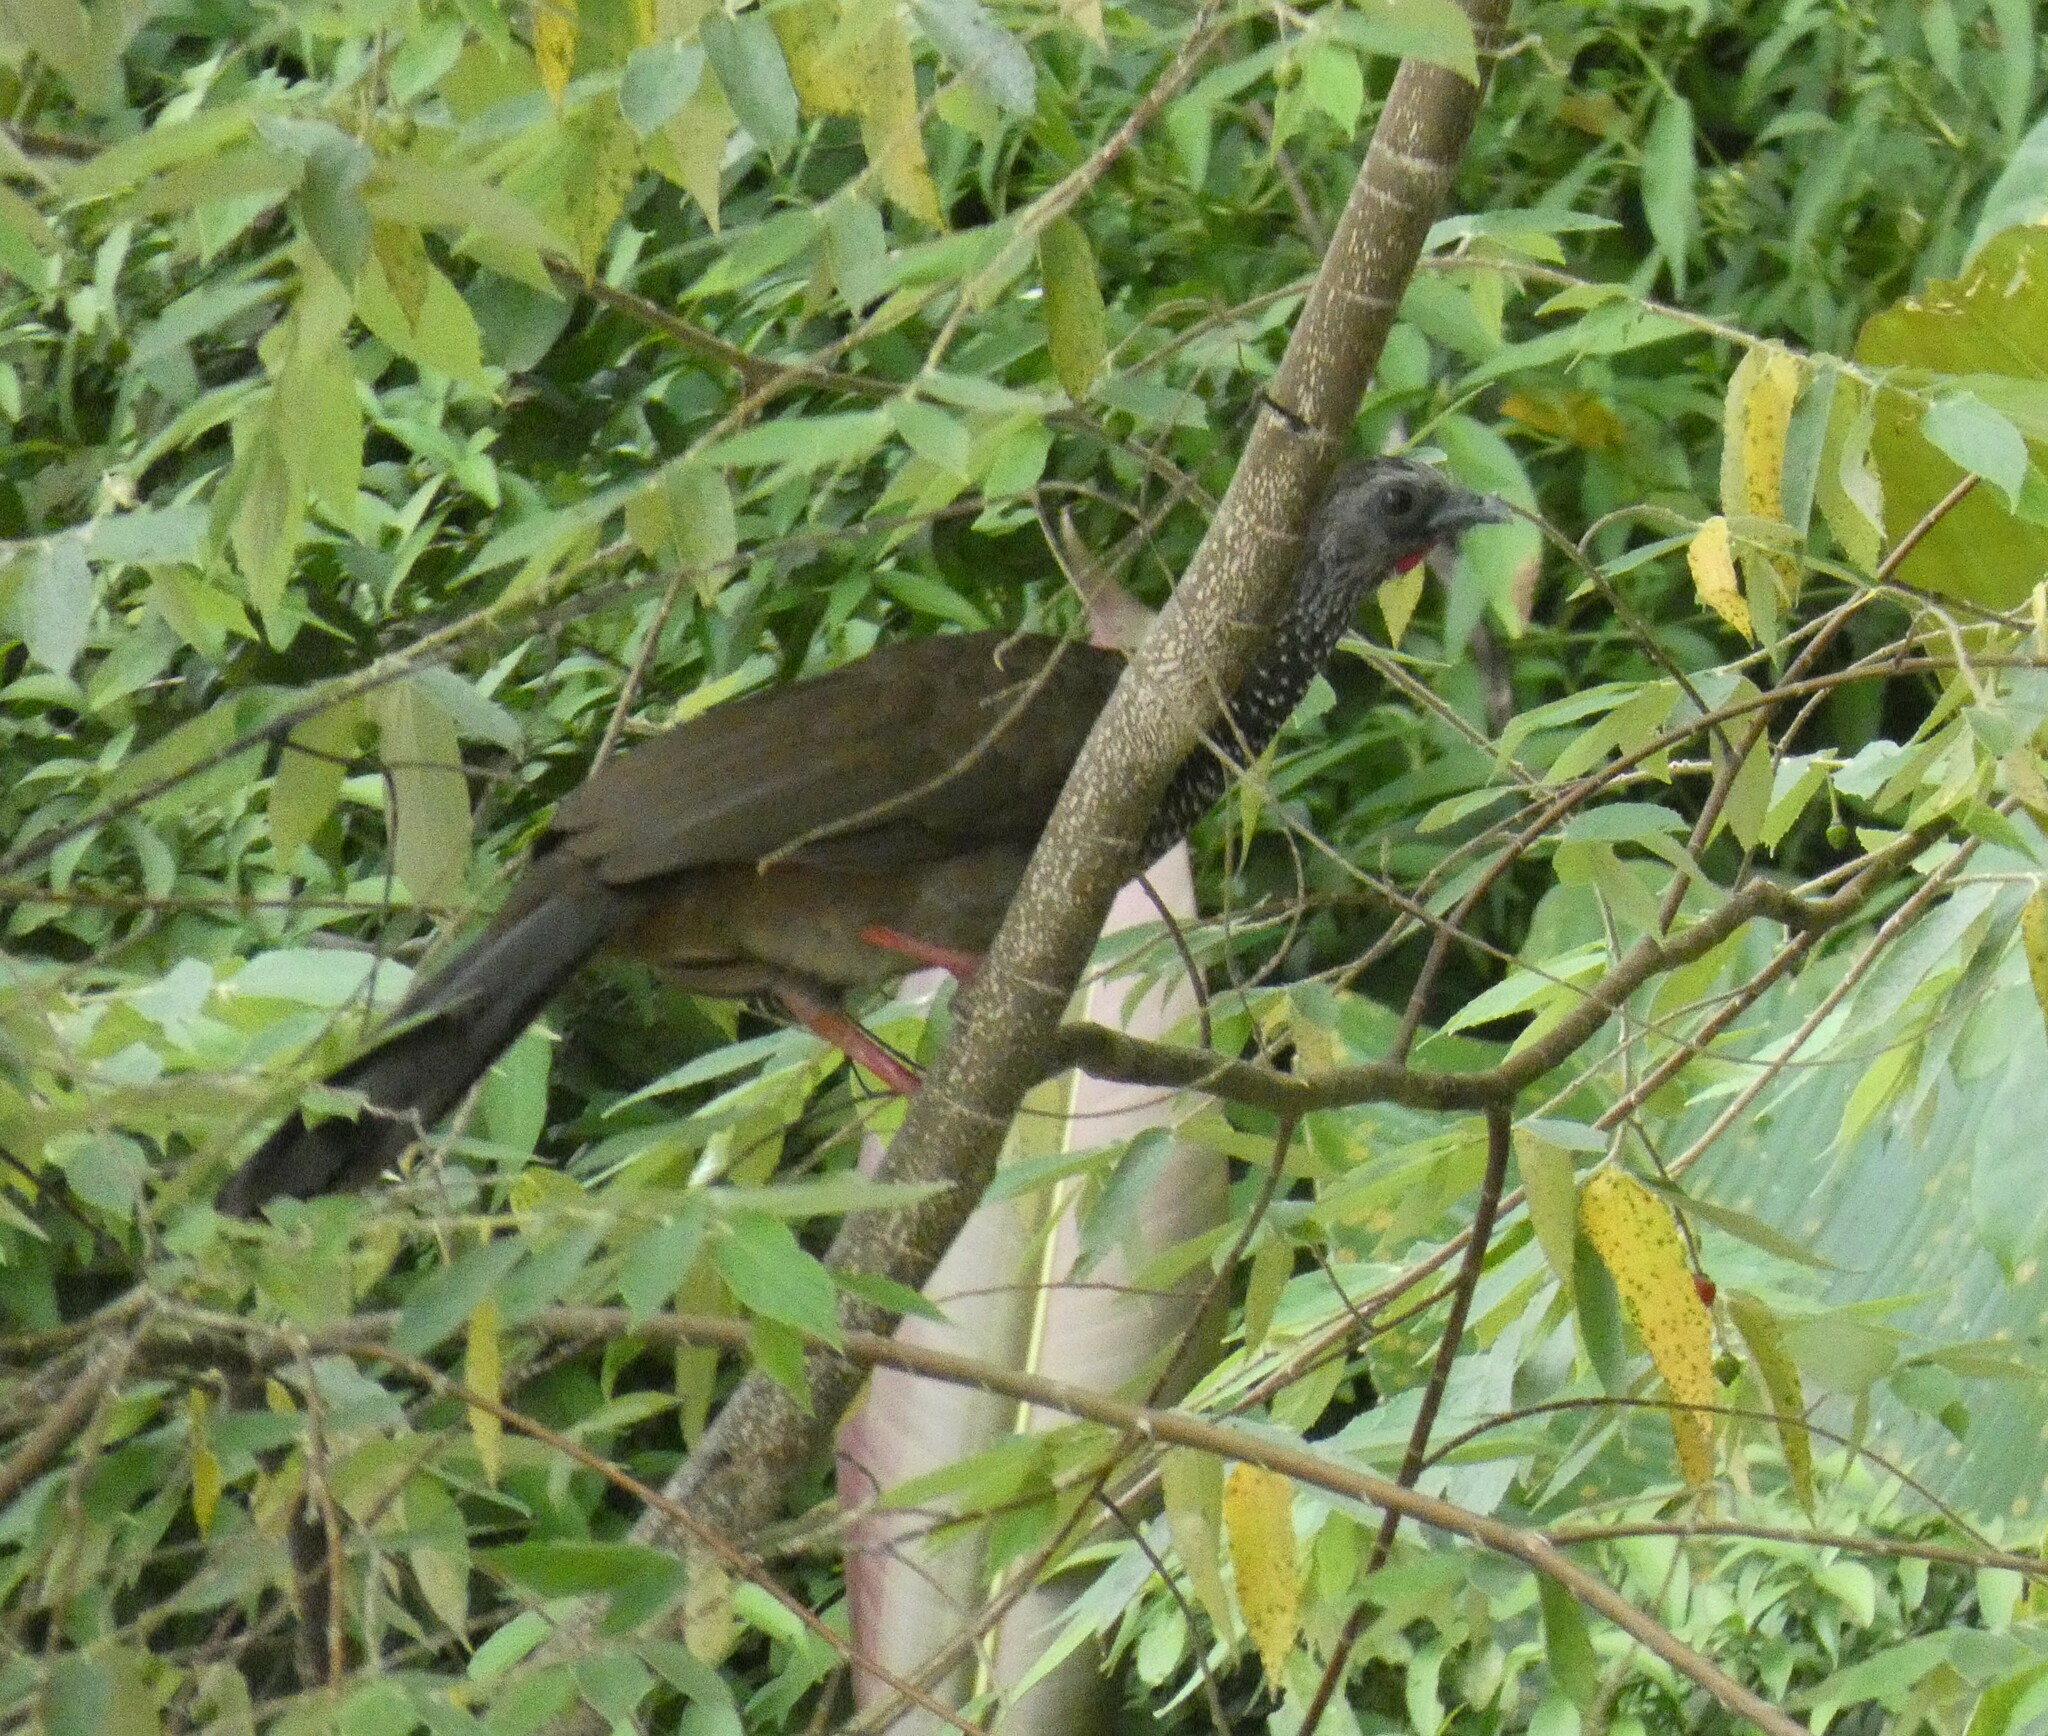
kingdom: Animalia
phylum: Chordata
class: Aves
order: Galliformes
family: Cracidae
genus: Ortalis
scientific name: Ortalis guttata
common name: Speckled chachalaca
